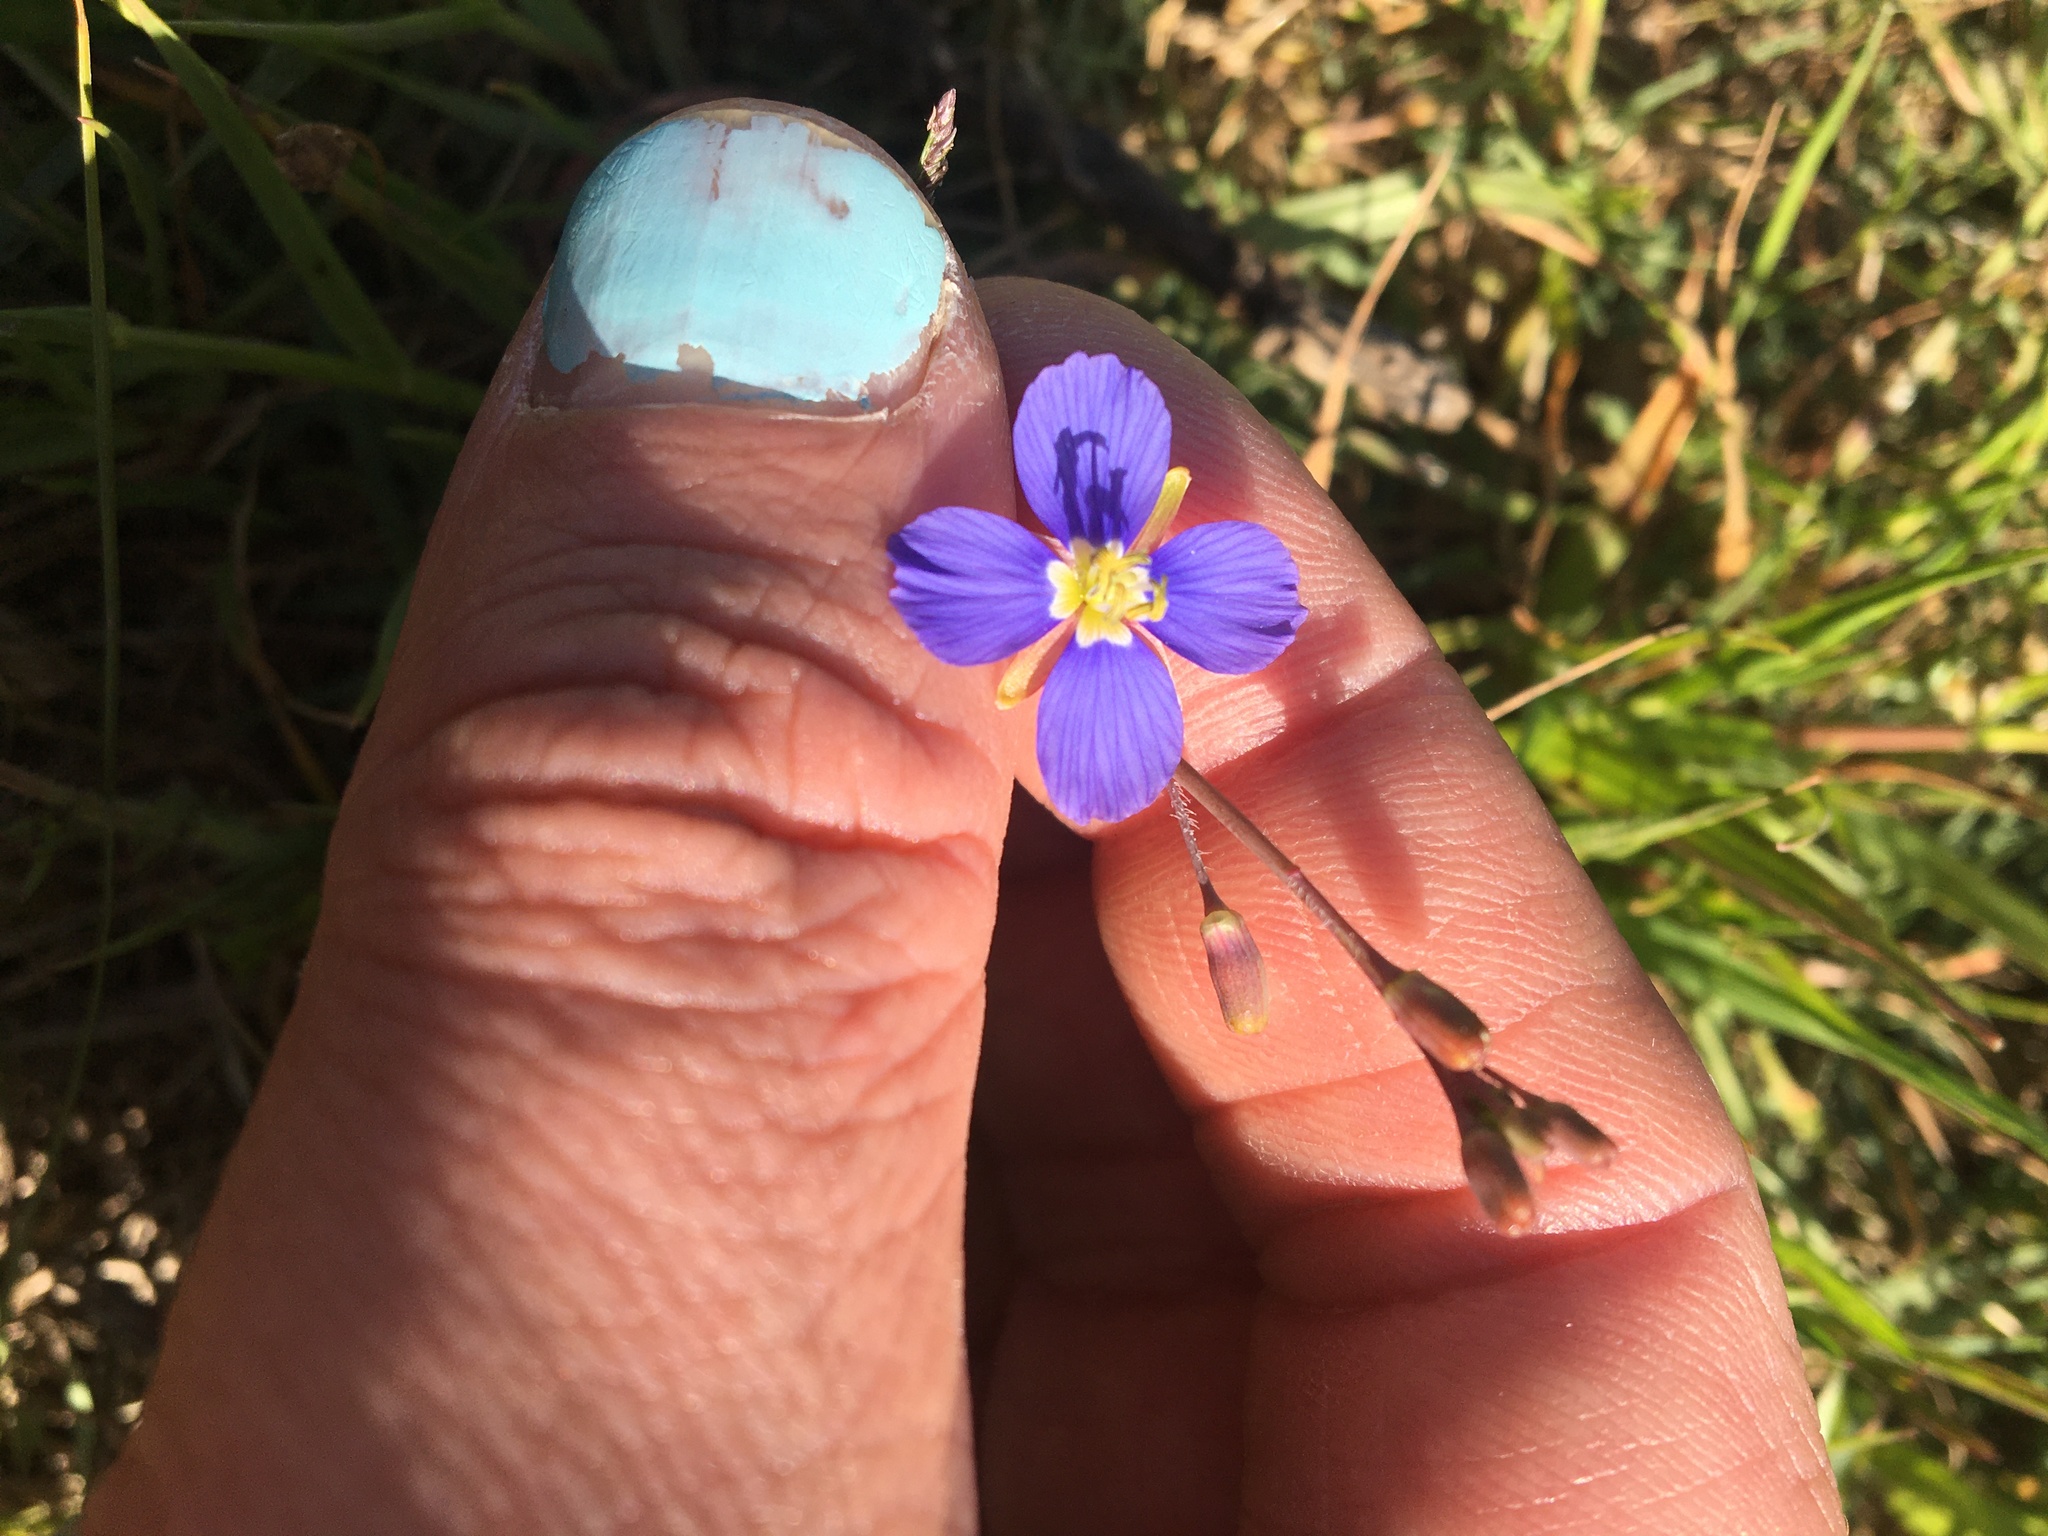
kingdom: Plantae
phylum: Tracheophyta
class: Magnoliopsida
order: Brassicales
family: Brassicaceae
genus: Heliophila
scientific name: Heliophila africana
